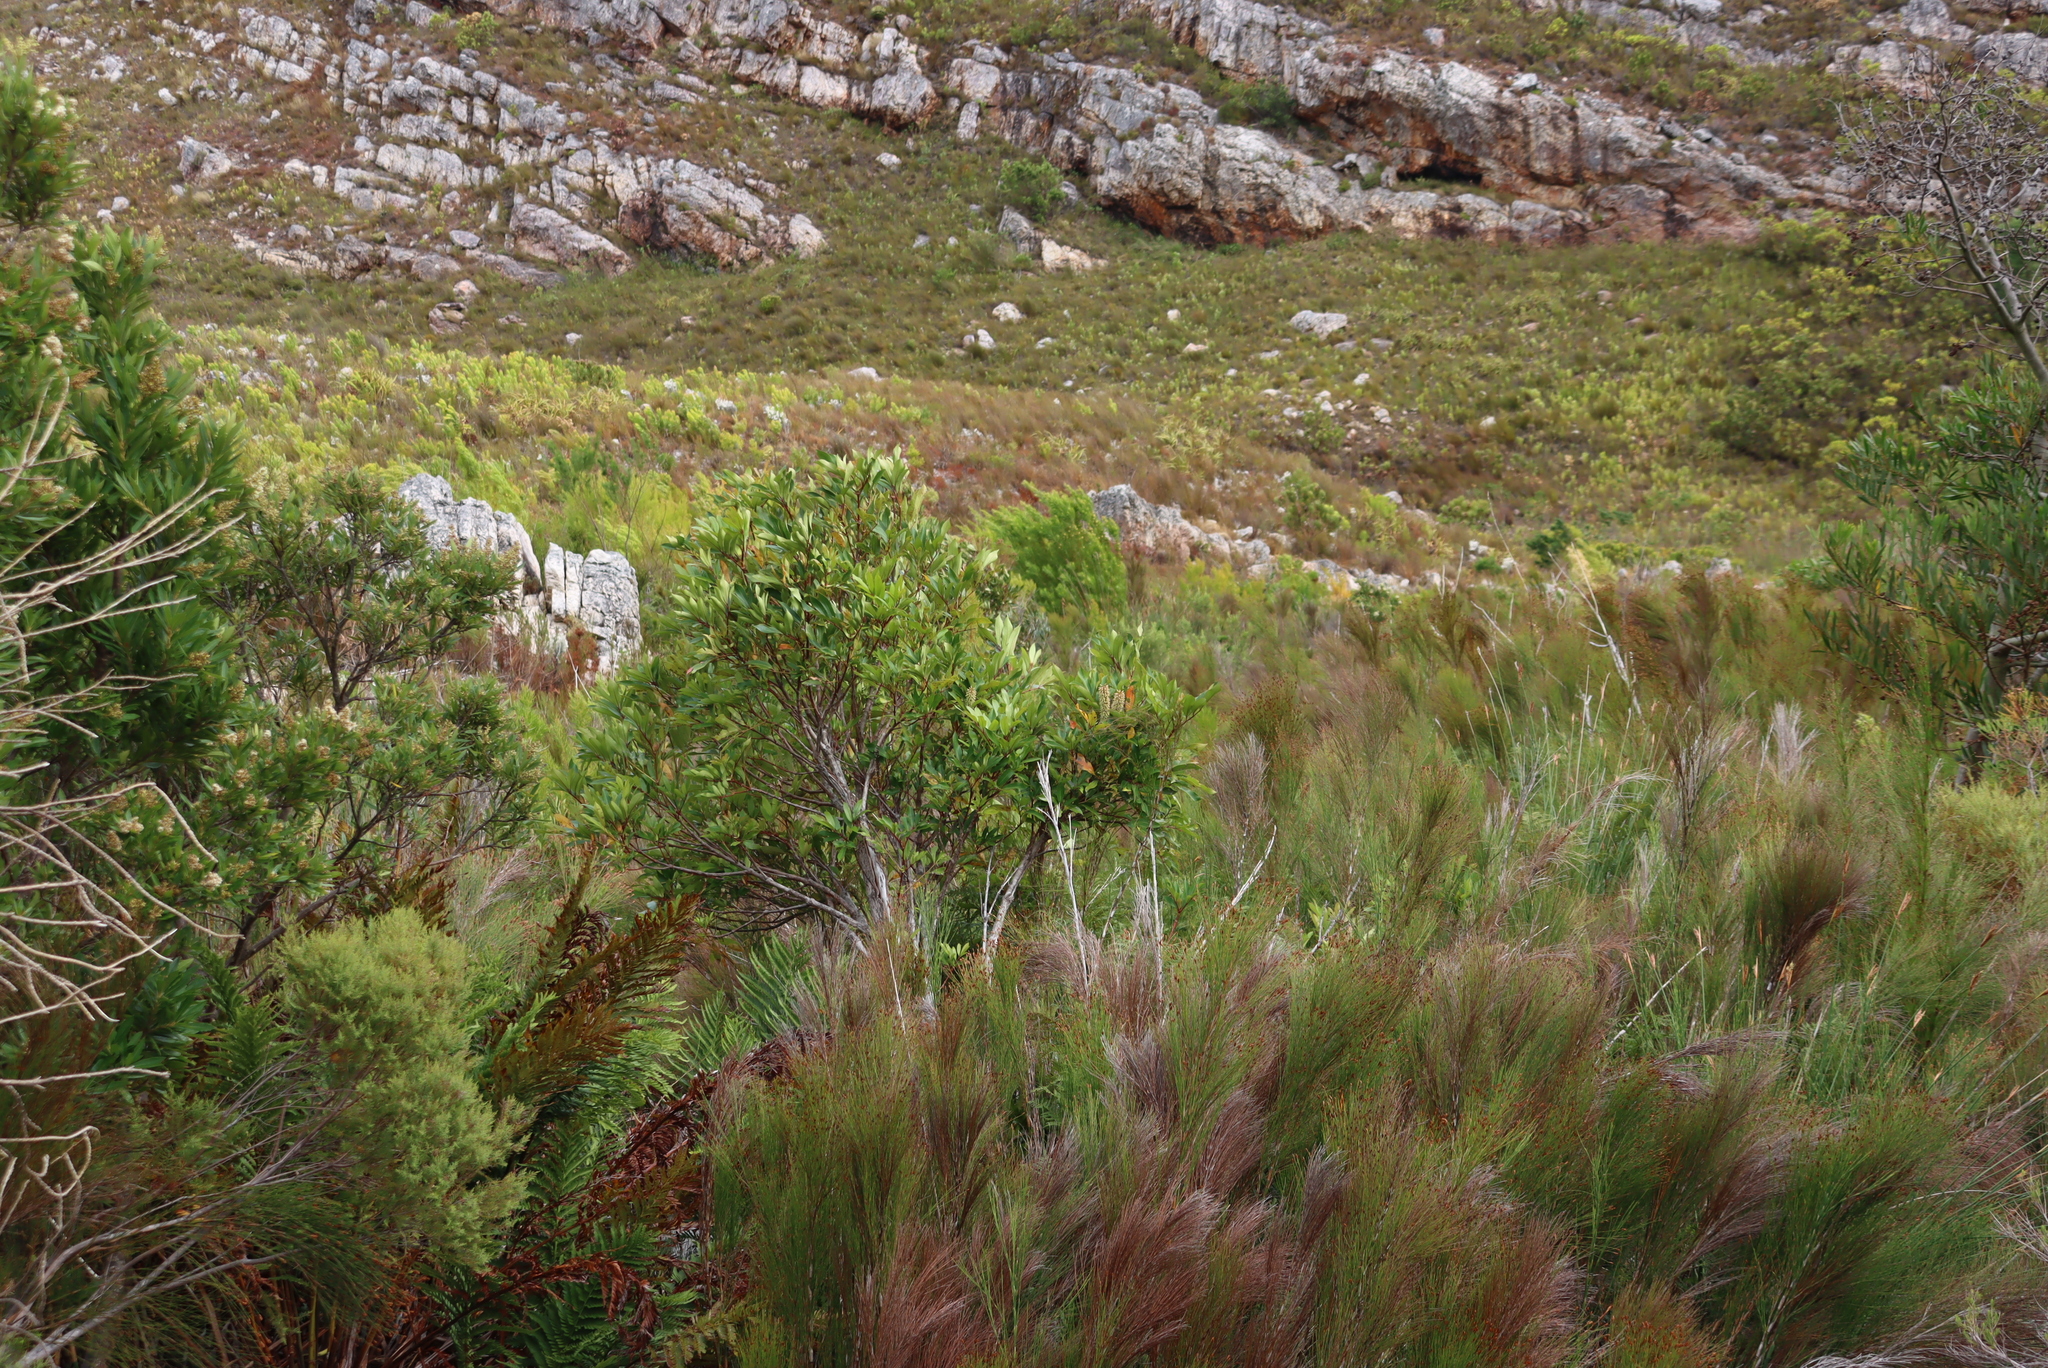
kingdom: Plantae
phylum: Tracheophyta
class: Magnoliopsida
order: Oxalidales
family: Cunoniaceae
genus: Cunonia
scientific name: Cunonia capensis
